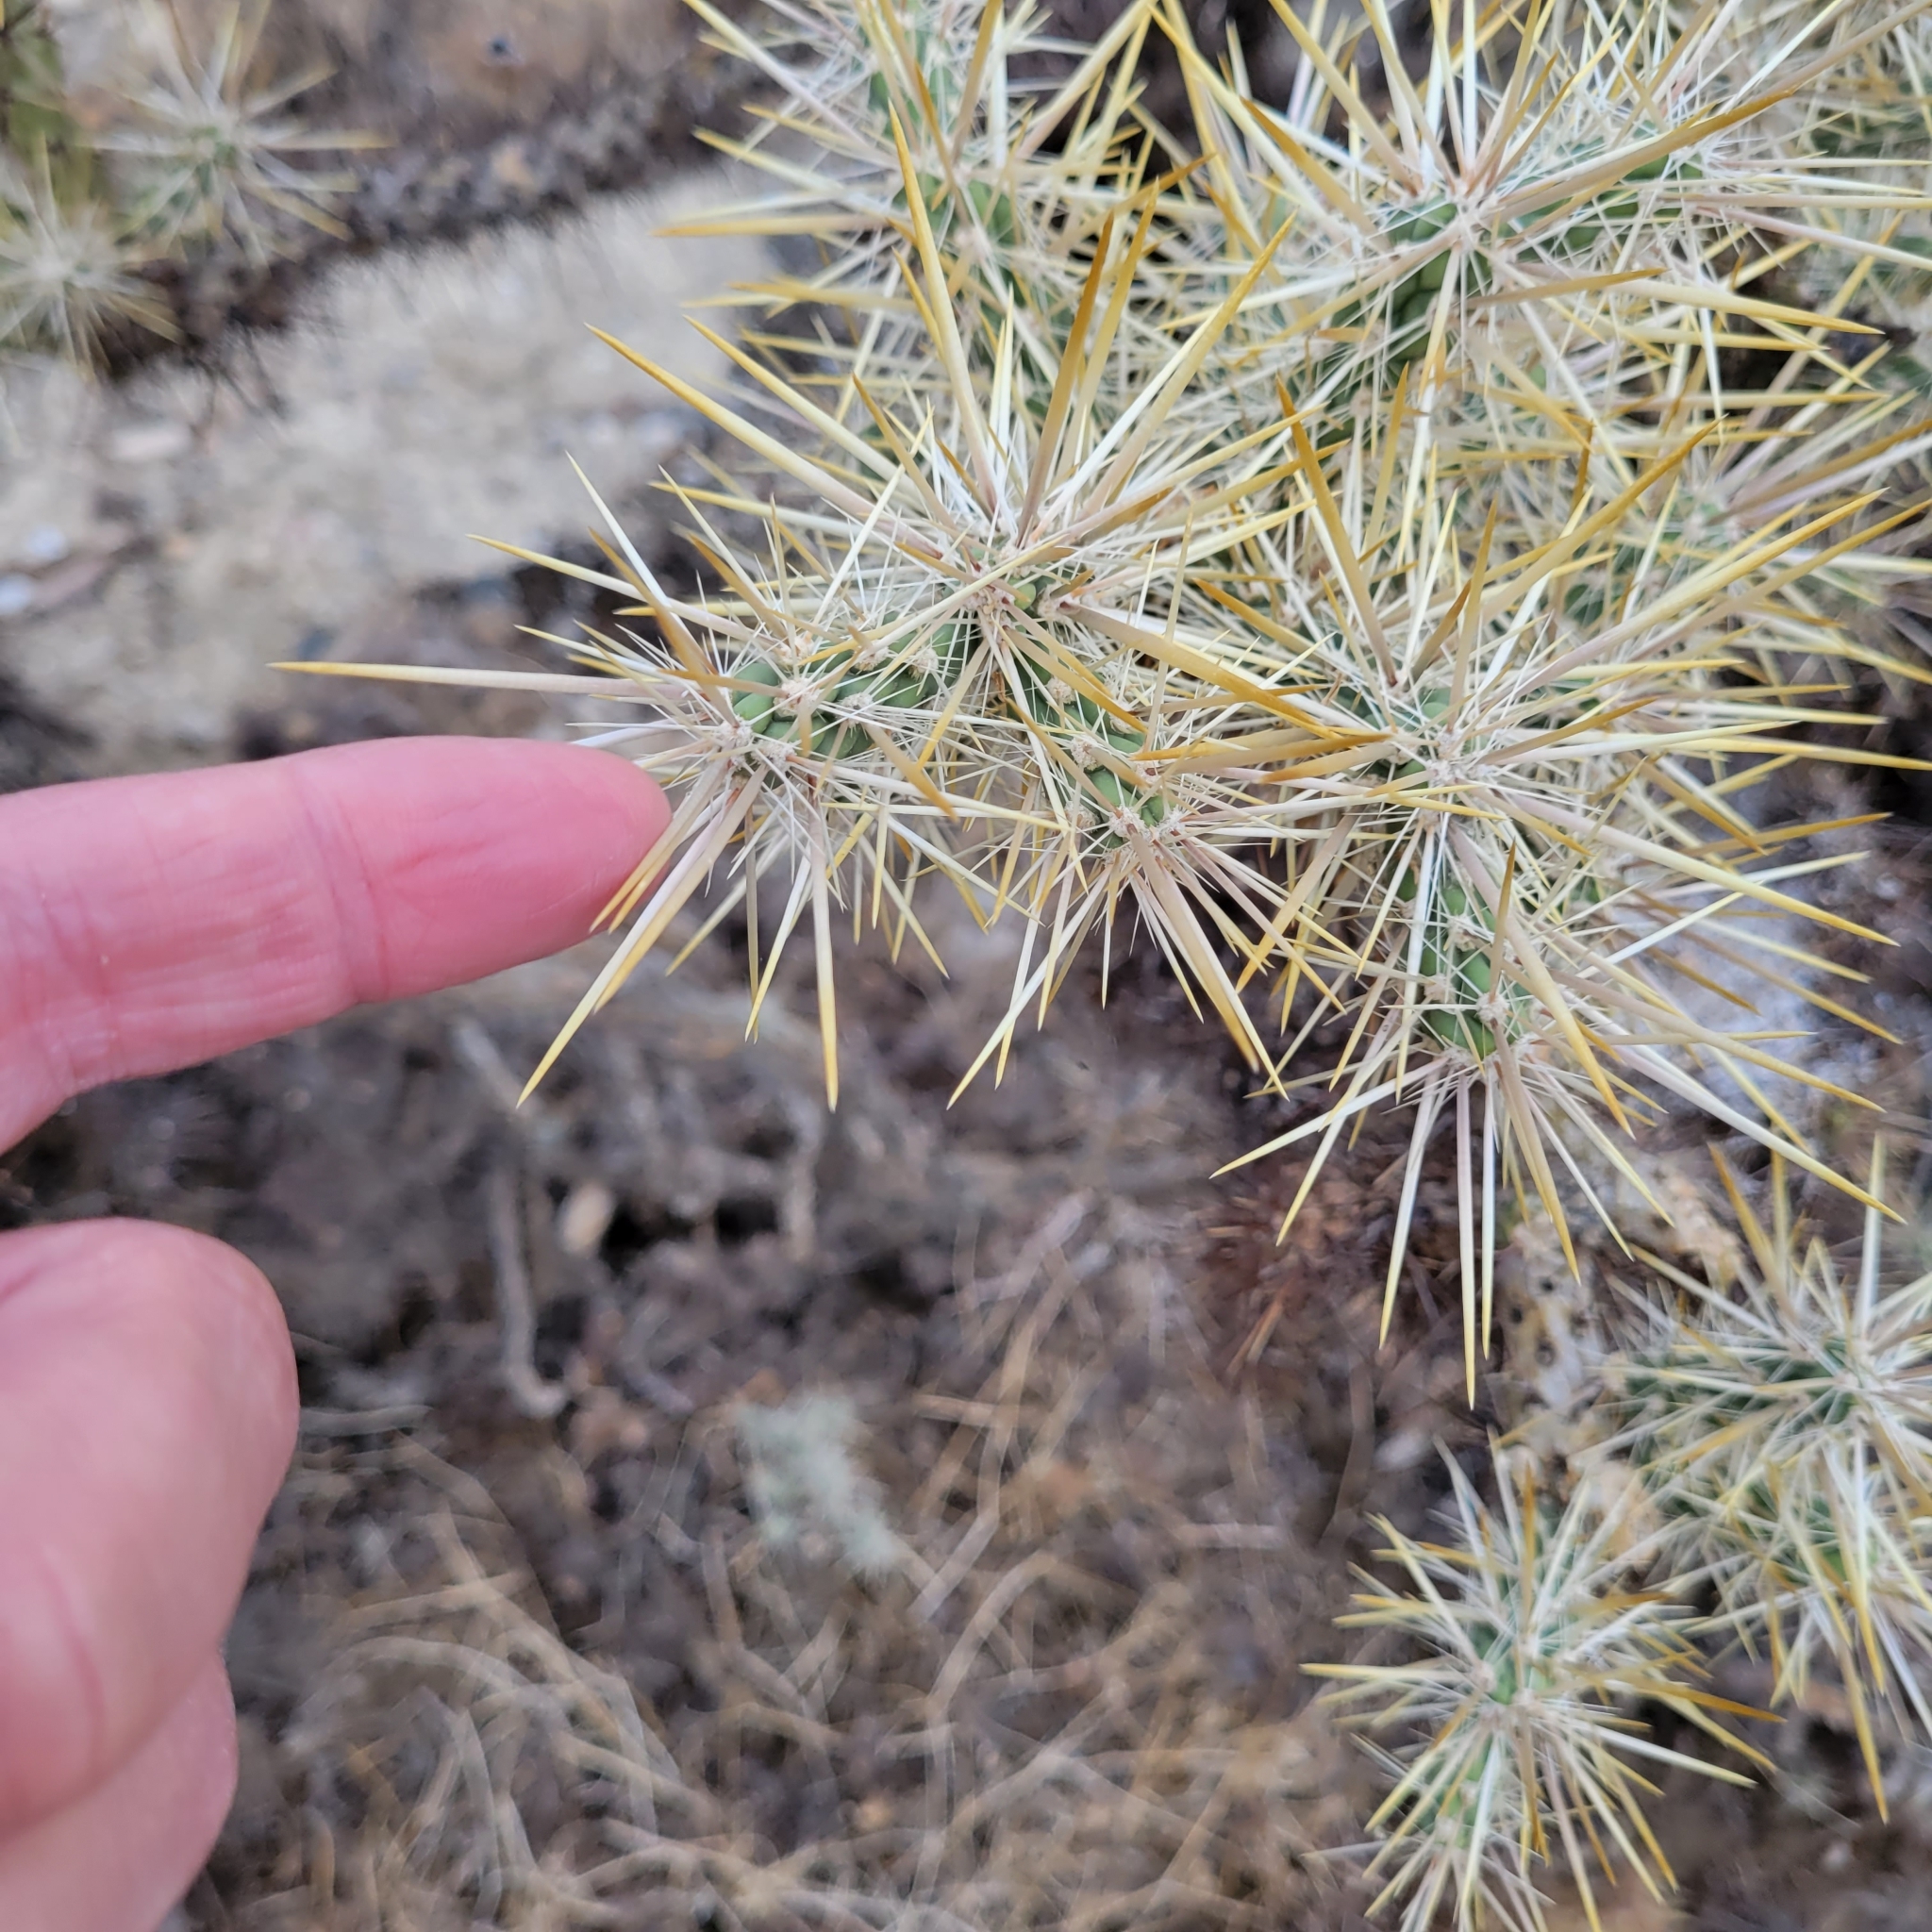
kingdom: Plantae
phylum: Tracheophyta
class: Magnoliopsida
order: Caryophyllales
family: Cactaceae
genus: Cylindropuntia
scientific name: Cylindropuntia echinocarpa
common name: Ground cholla
